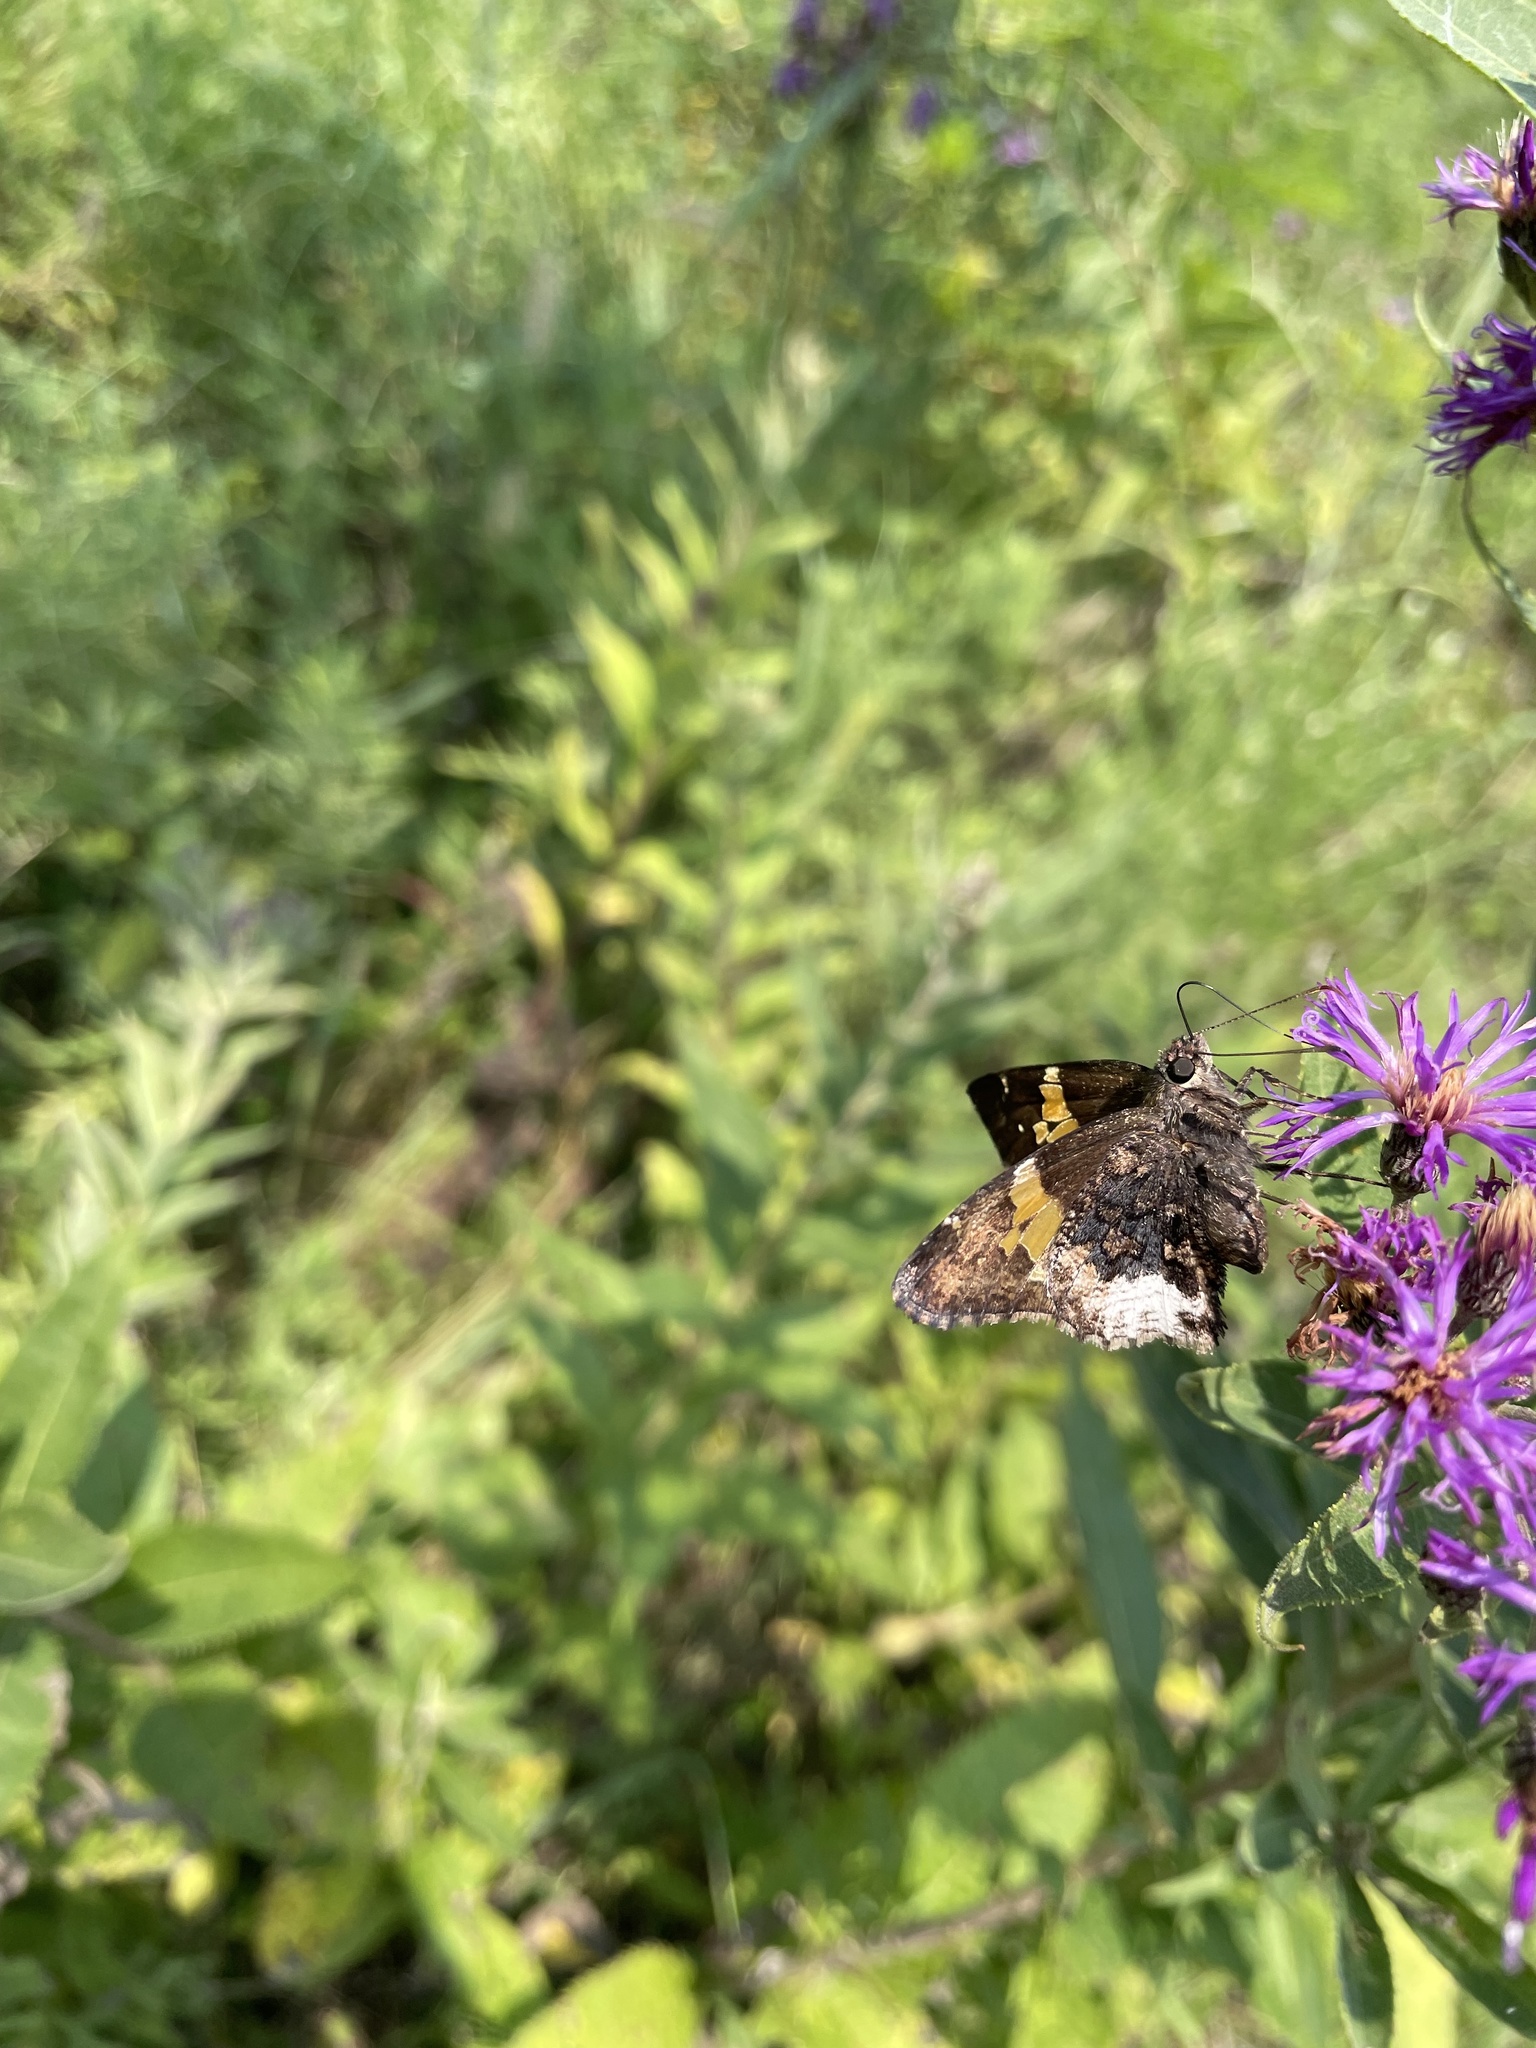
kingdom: Animalia
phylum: Arthropoda
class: Insecta
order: Lepidoptera
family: Hesperiidae
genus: Thorybes
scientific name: Thorybes lyciades
